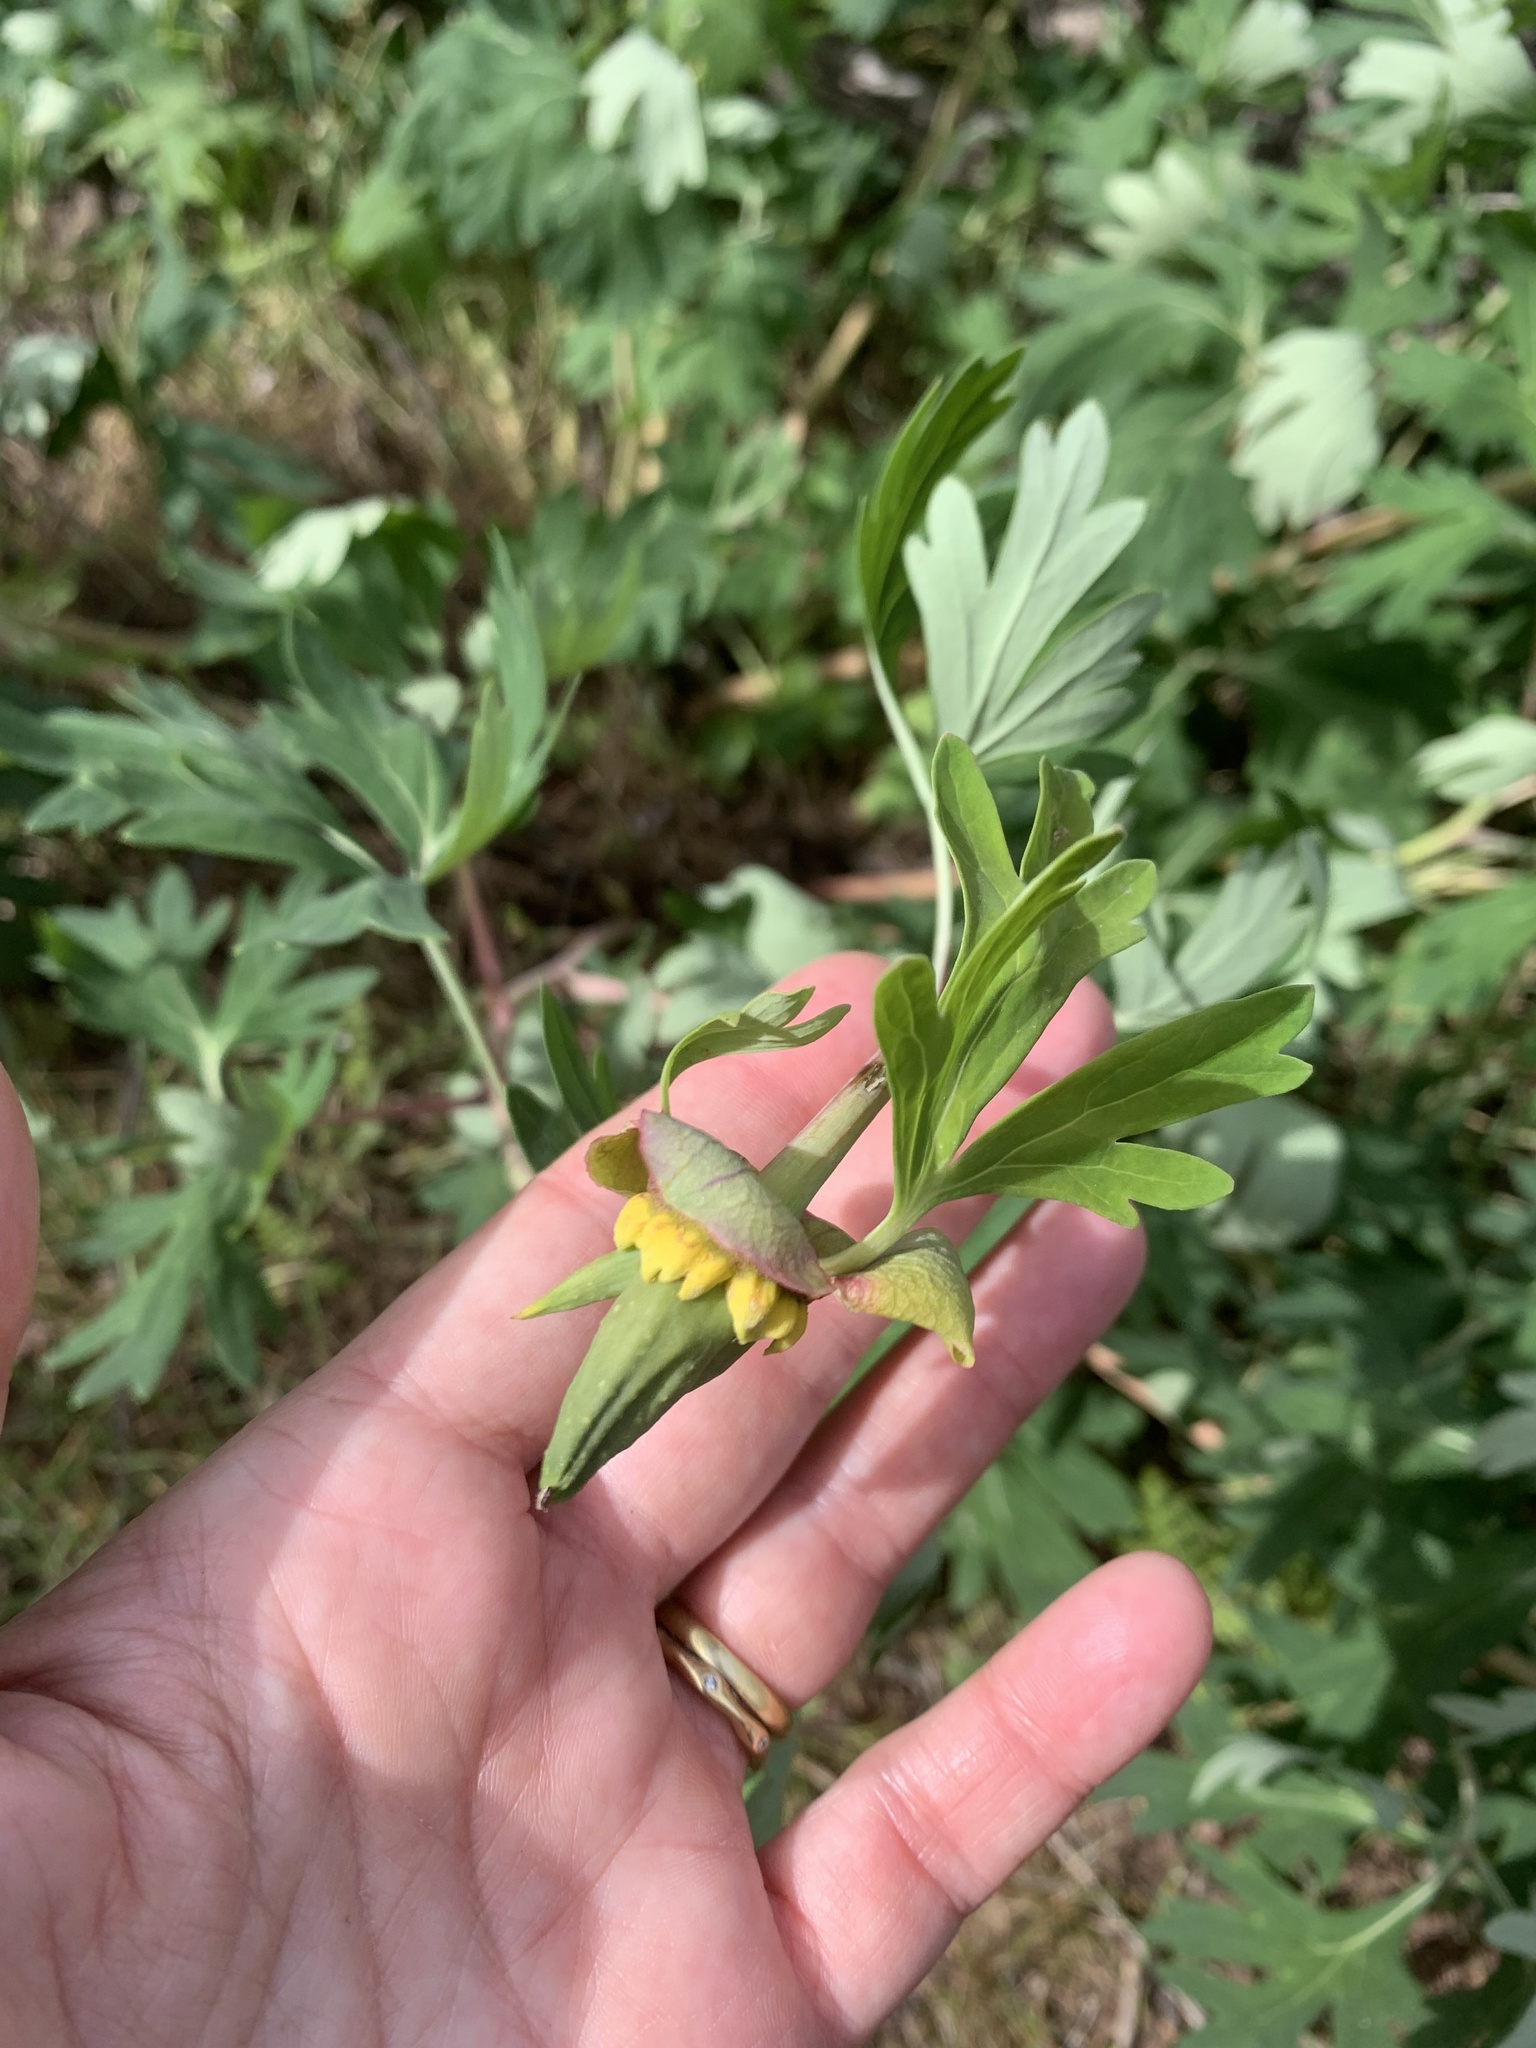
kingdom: Plantae
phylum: Tracheophyta
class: Magnoliopsida
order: Saxifragales
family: Paeoniaceae
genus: Paeonia
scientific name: Paeonia californica
